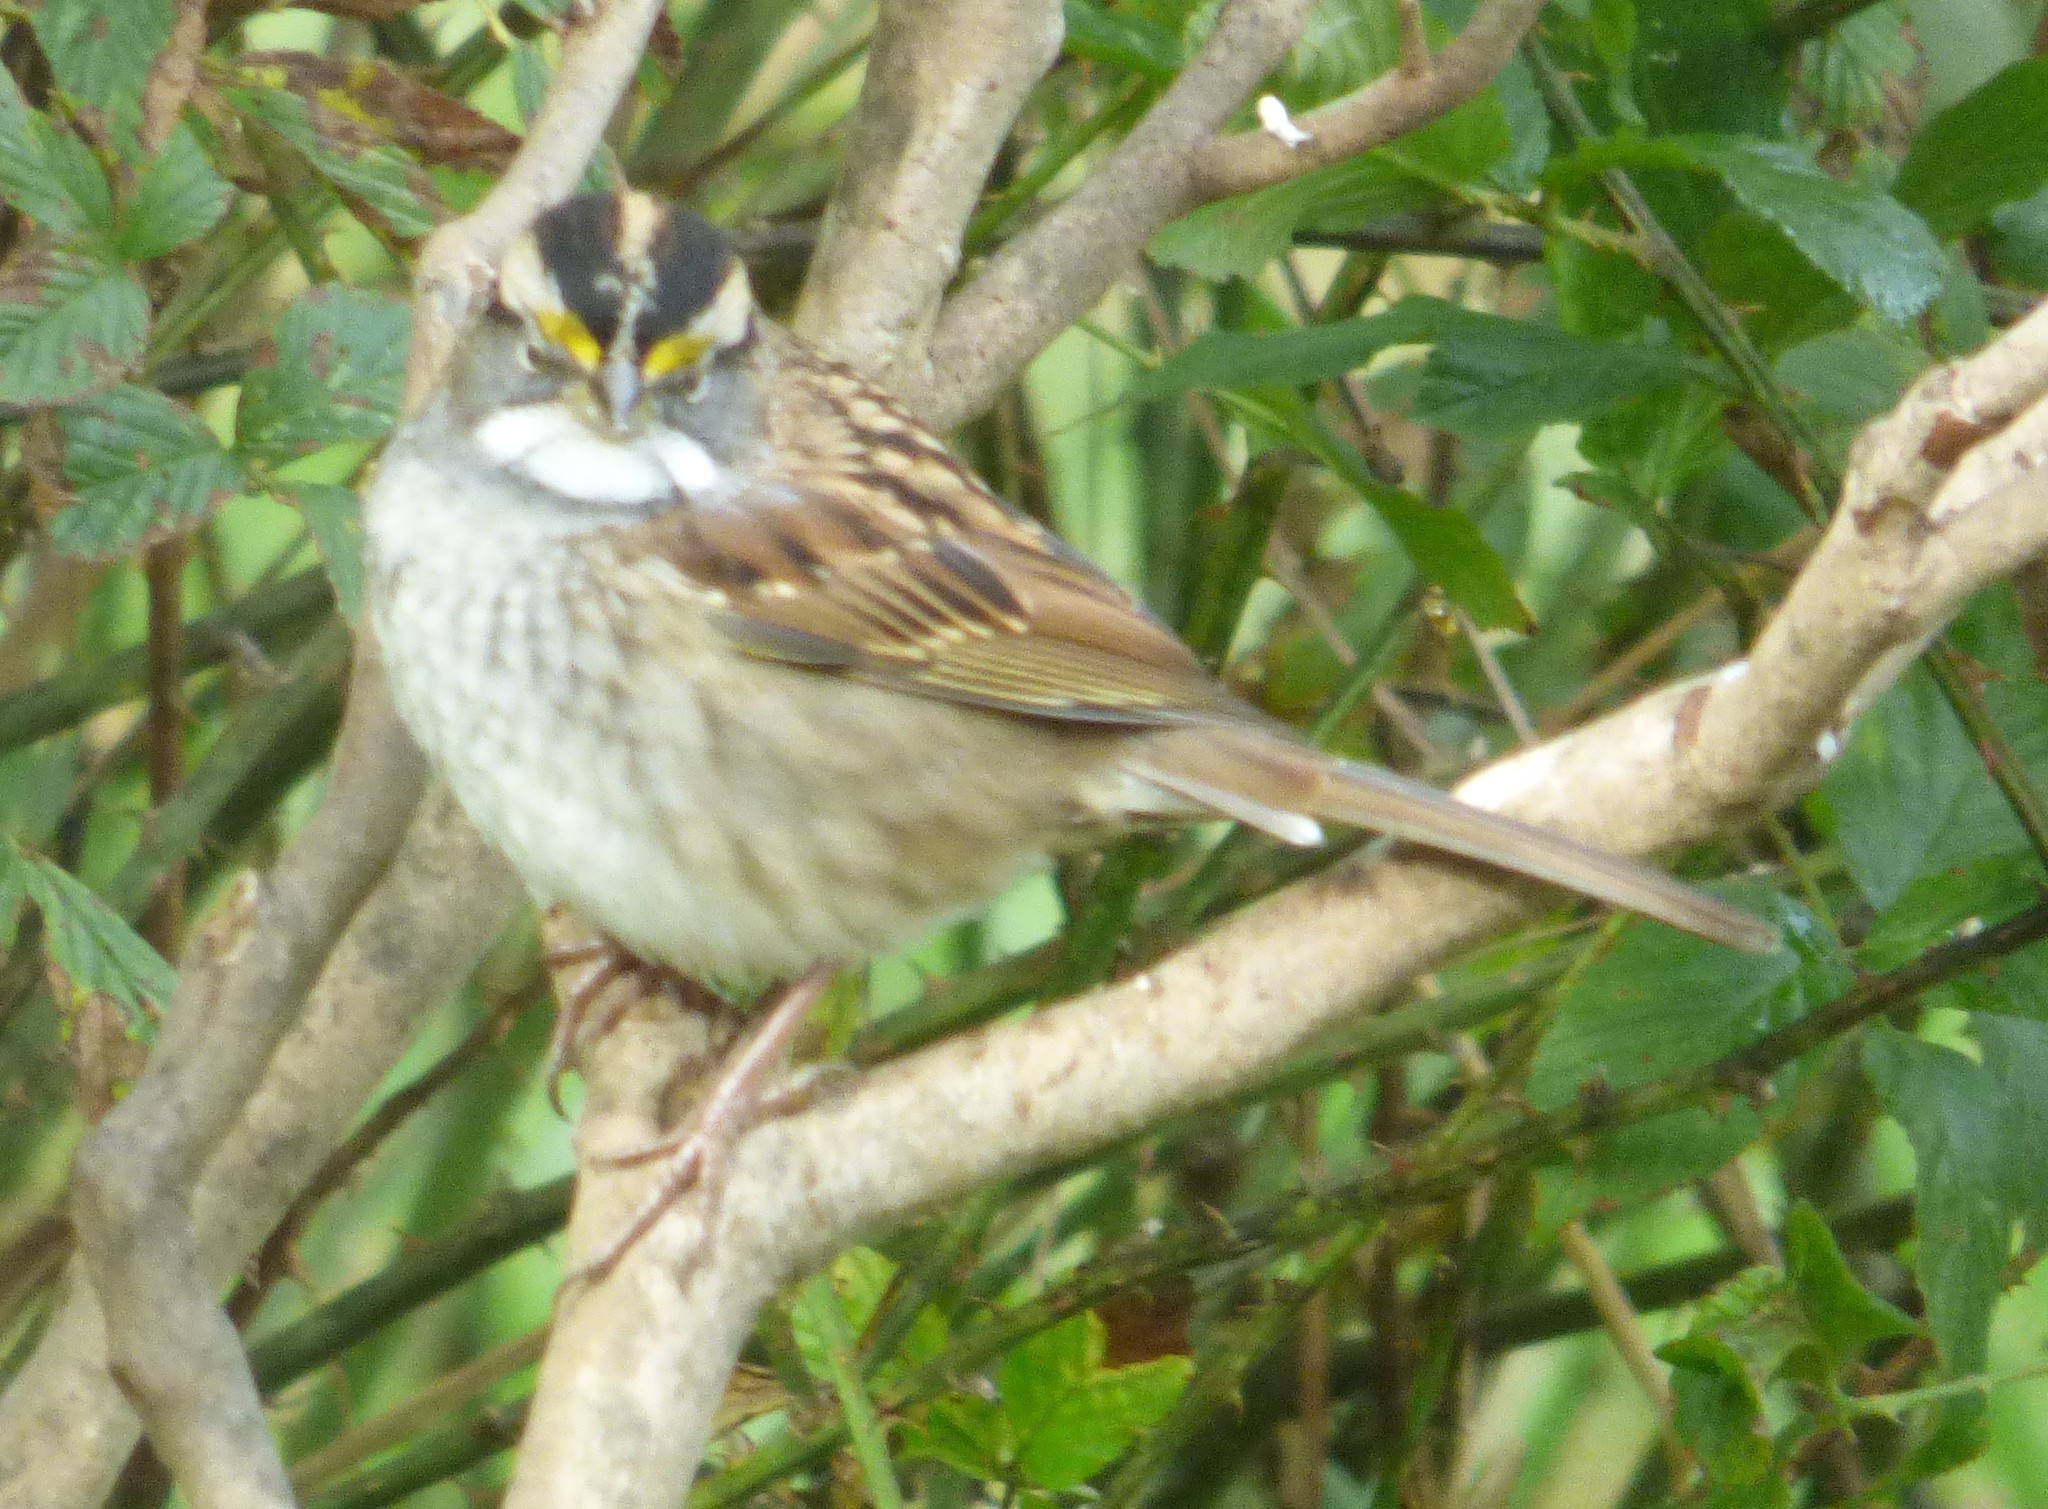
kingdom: Animalia
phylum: Chordata
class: Aves
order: Passeriformes
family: Passerellidae
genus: Zonotrichia
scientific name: Zonotrichia albicollis
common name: White-throated sparrow
